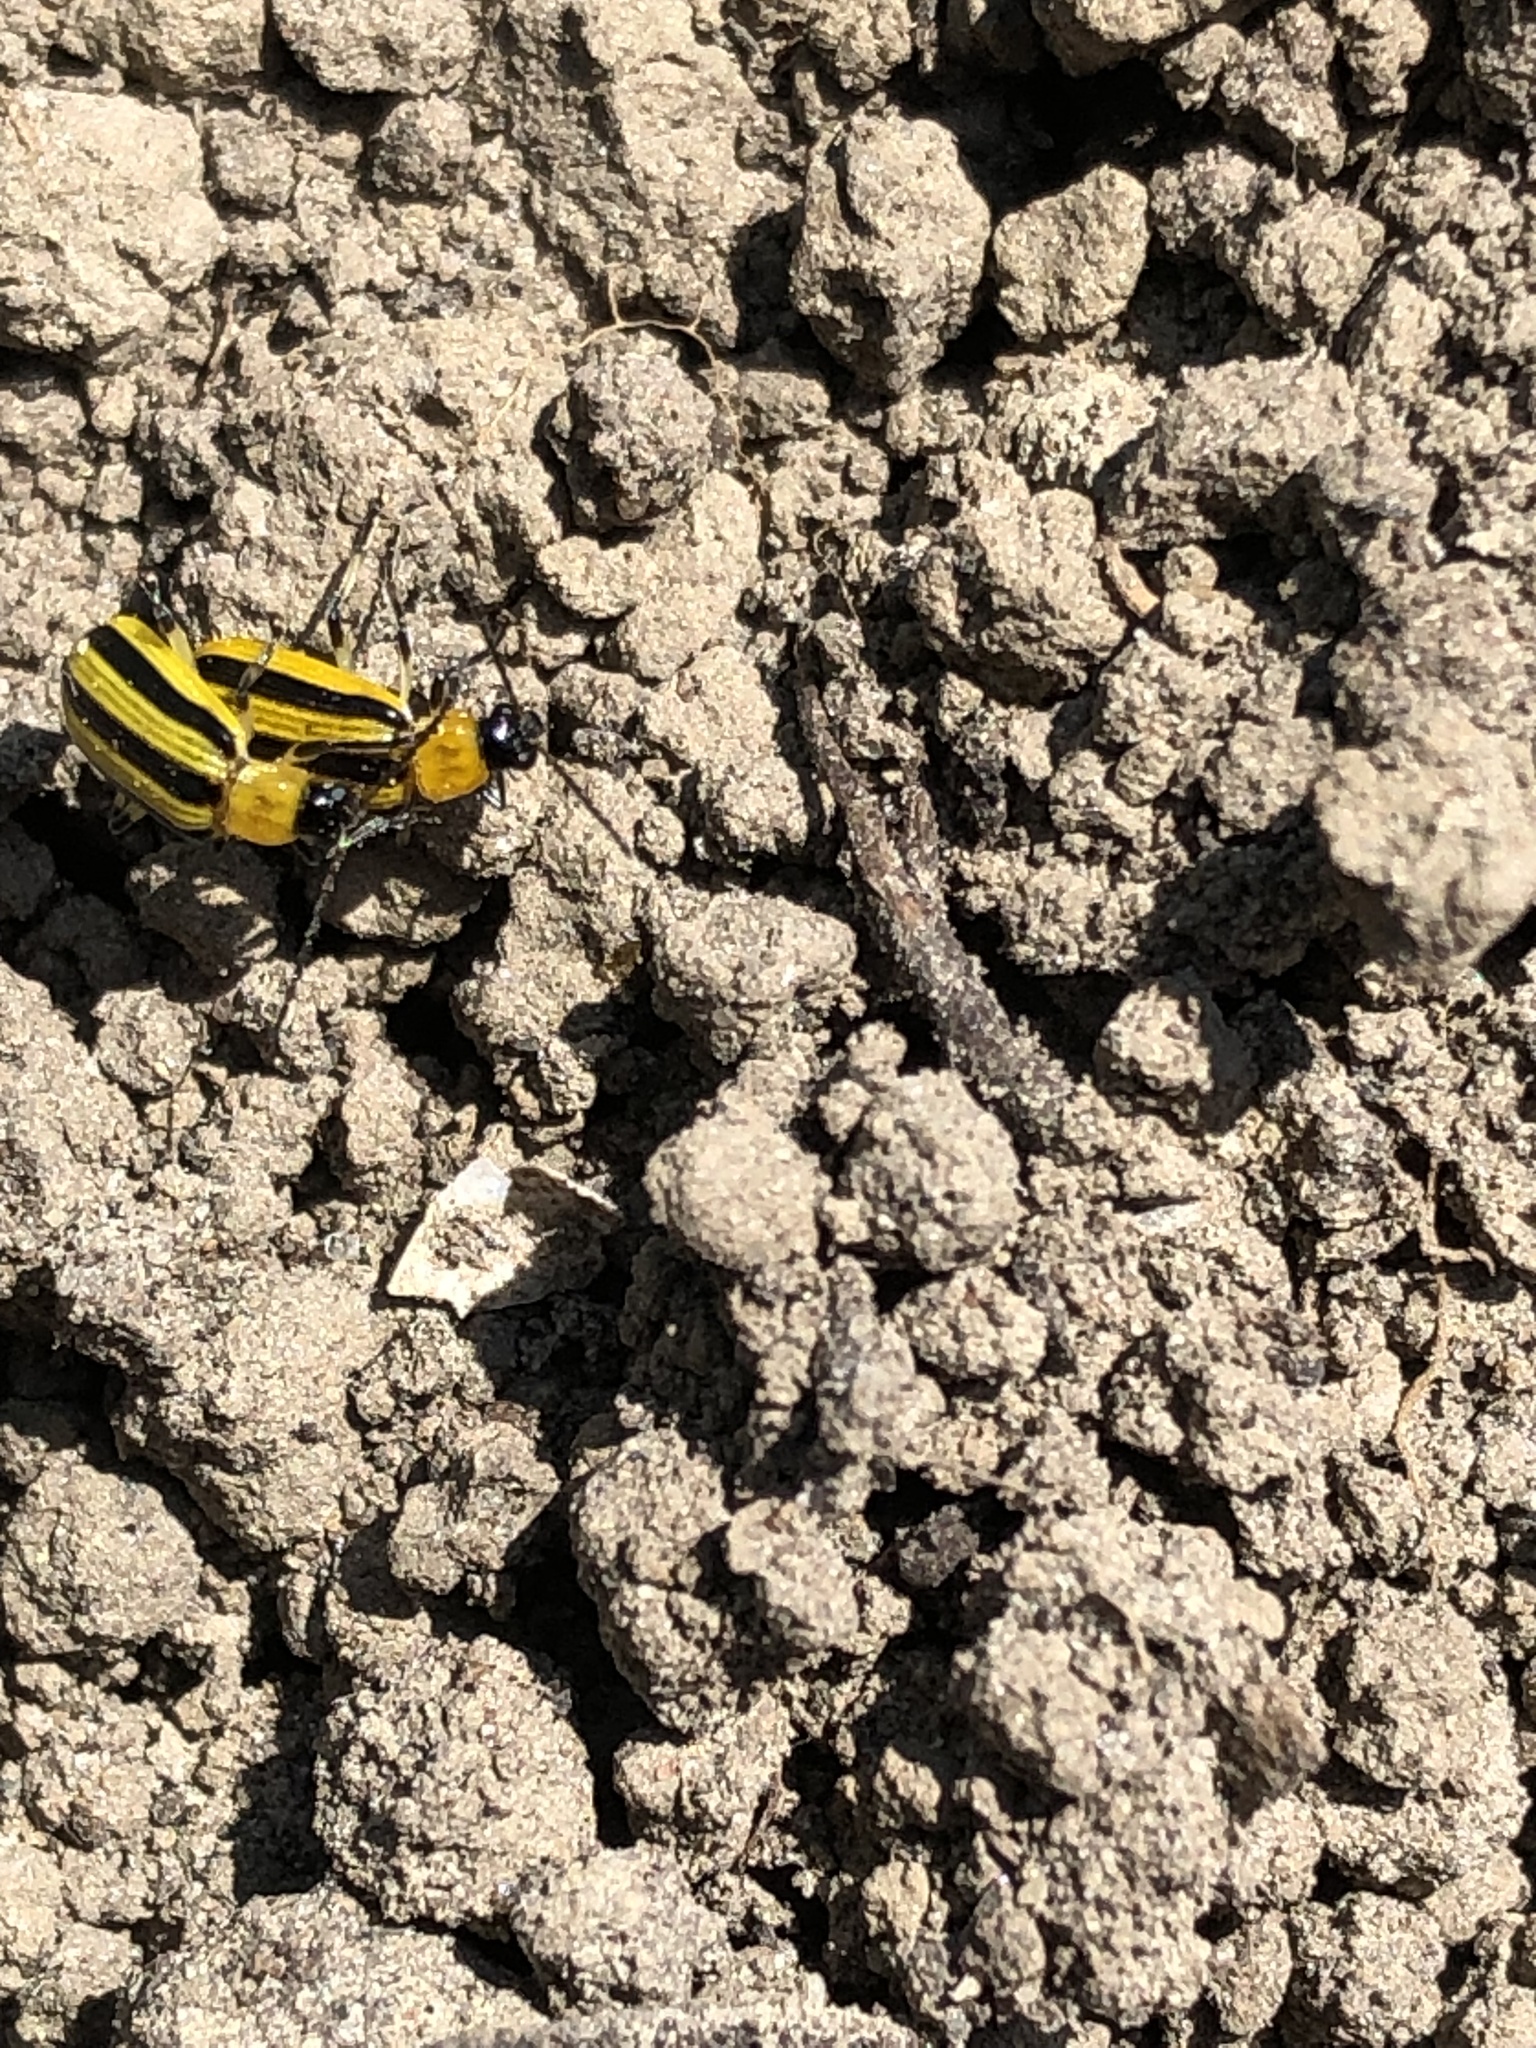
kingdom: Animalia
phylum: Arthropoda
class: Insecta
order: Coleoptera
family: Chrysomelidae
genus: Acalymma
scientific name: Acalymma vittatum
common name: Striped cucumber beetle
